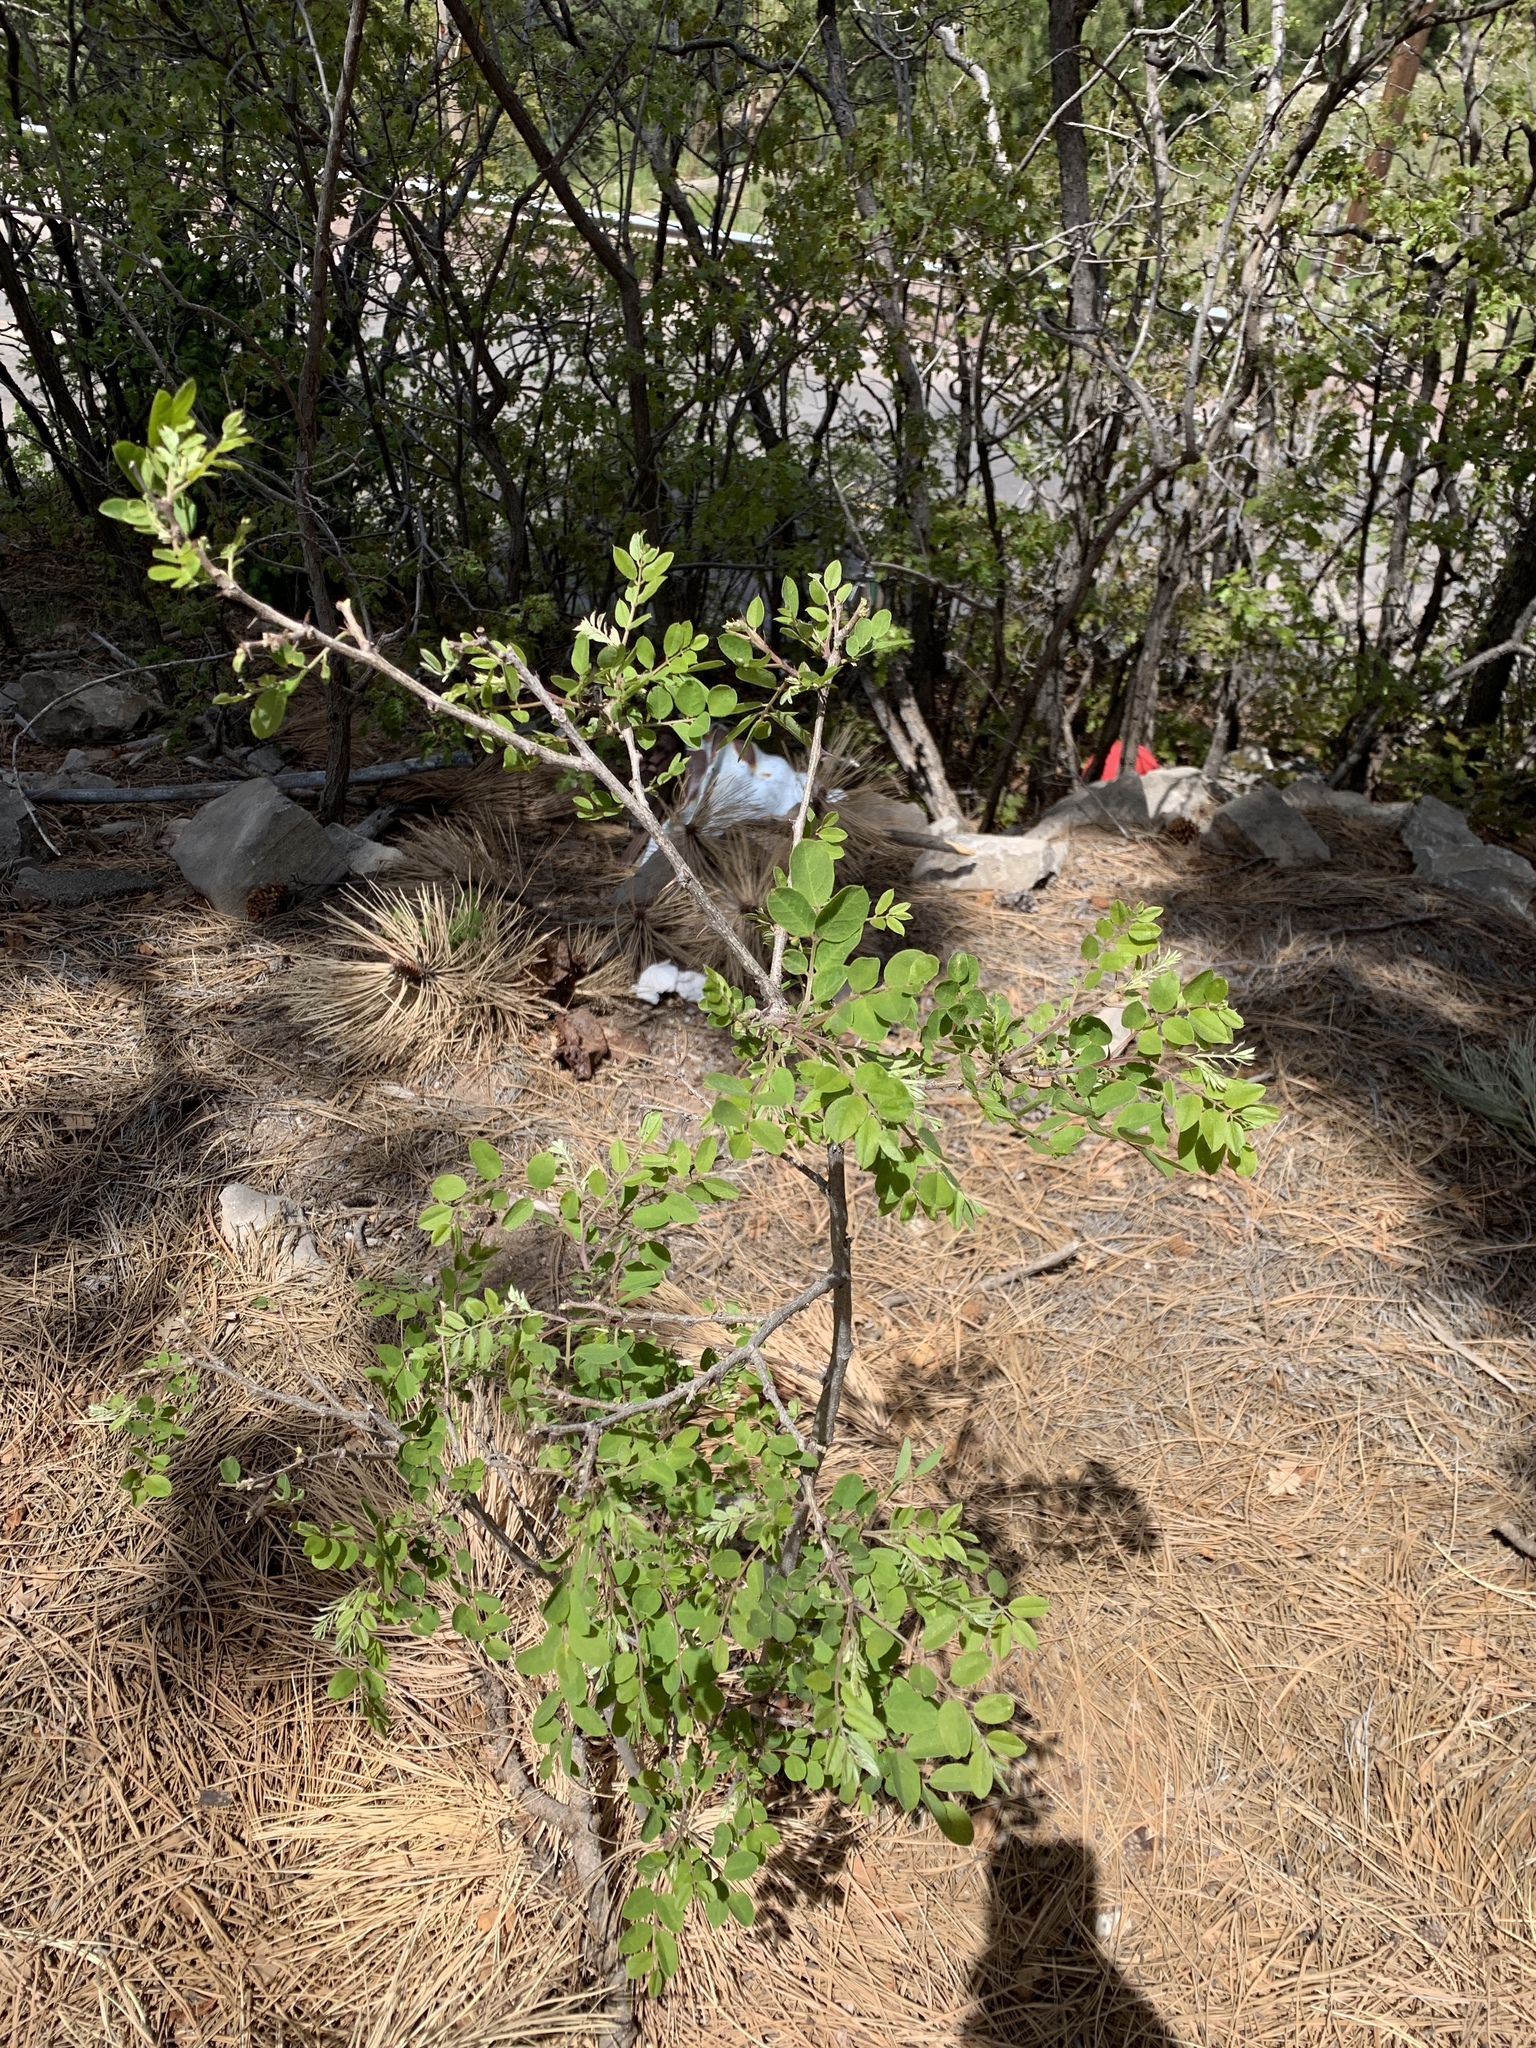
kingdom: Plantae
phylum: Tracheophyta
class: Magnoliopsida
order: Fabales
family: Fabaceae
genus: Robinia
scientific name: Robinia neomexicana
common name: New mexico locust
